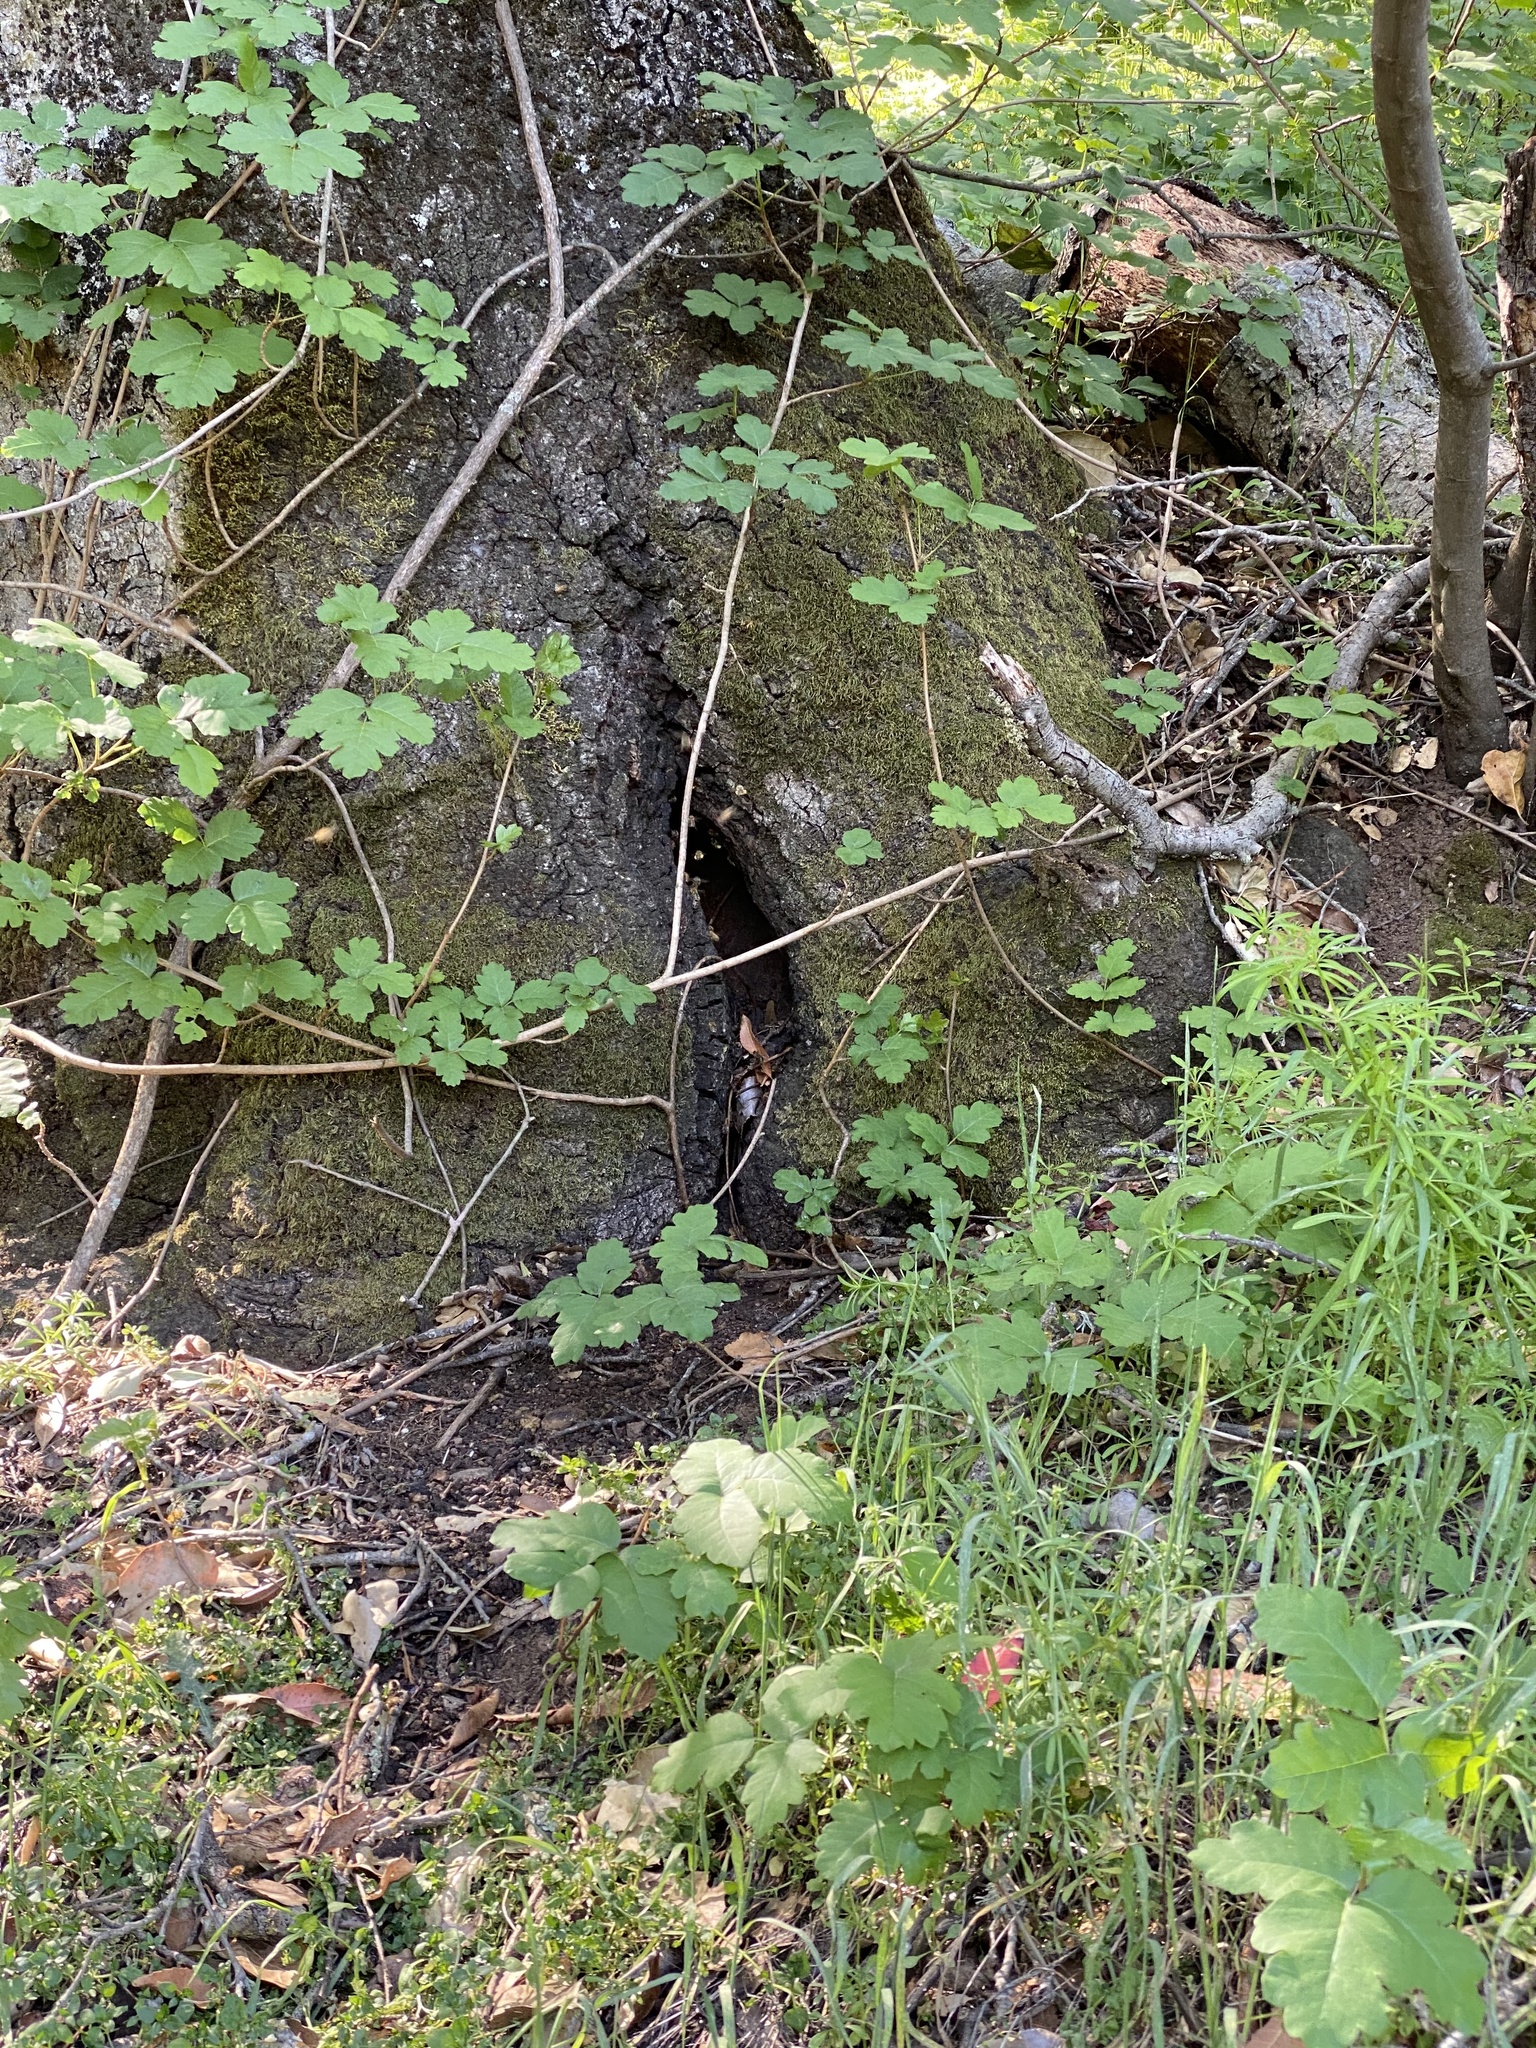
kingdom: Animalia
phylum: Arthropoda
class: Insecta
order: Hymenoptera
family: Apidae
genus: Apis
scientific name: Apis mellifera
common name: Honey bee
